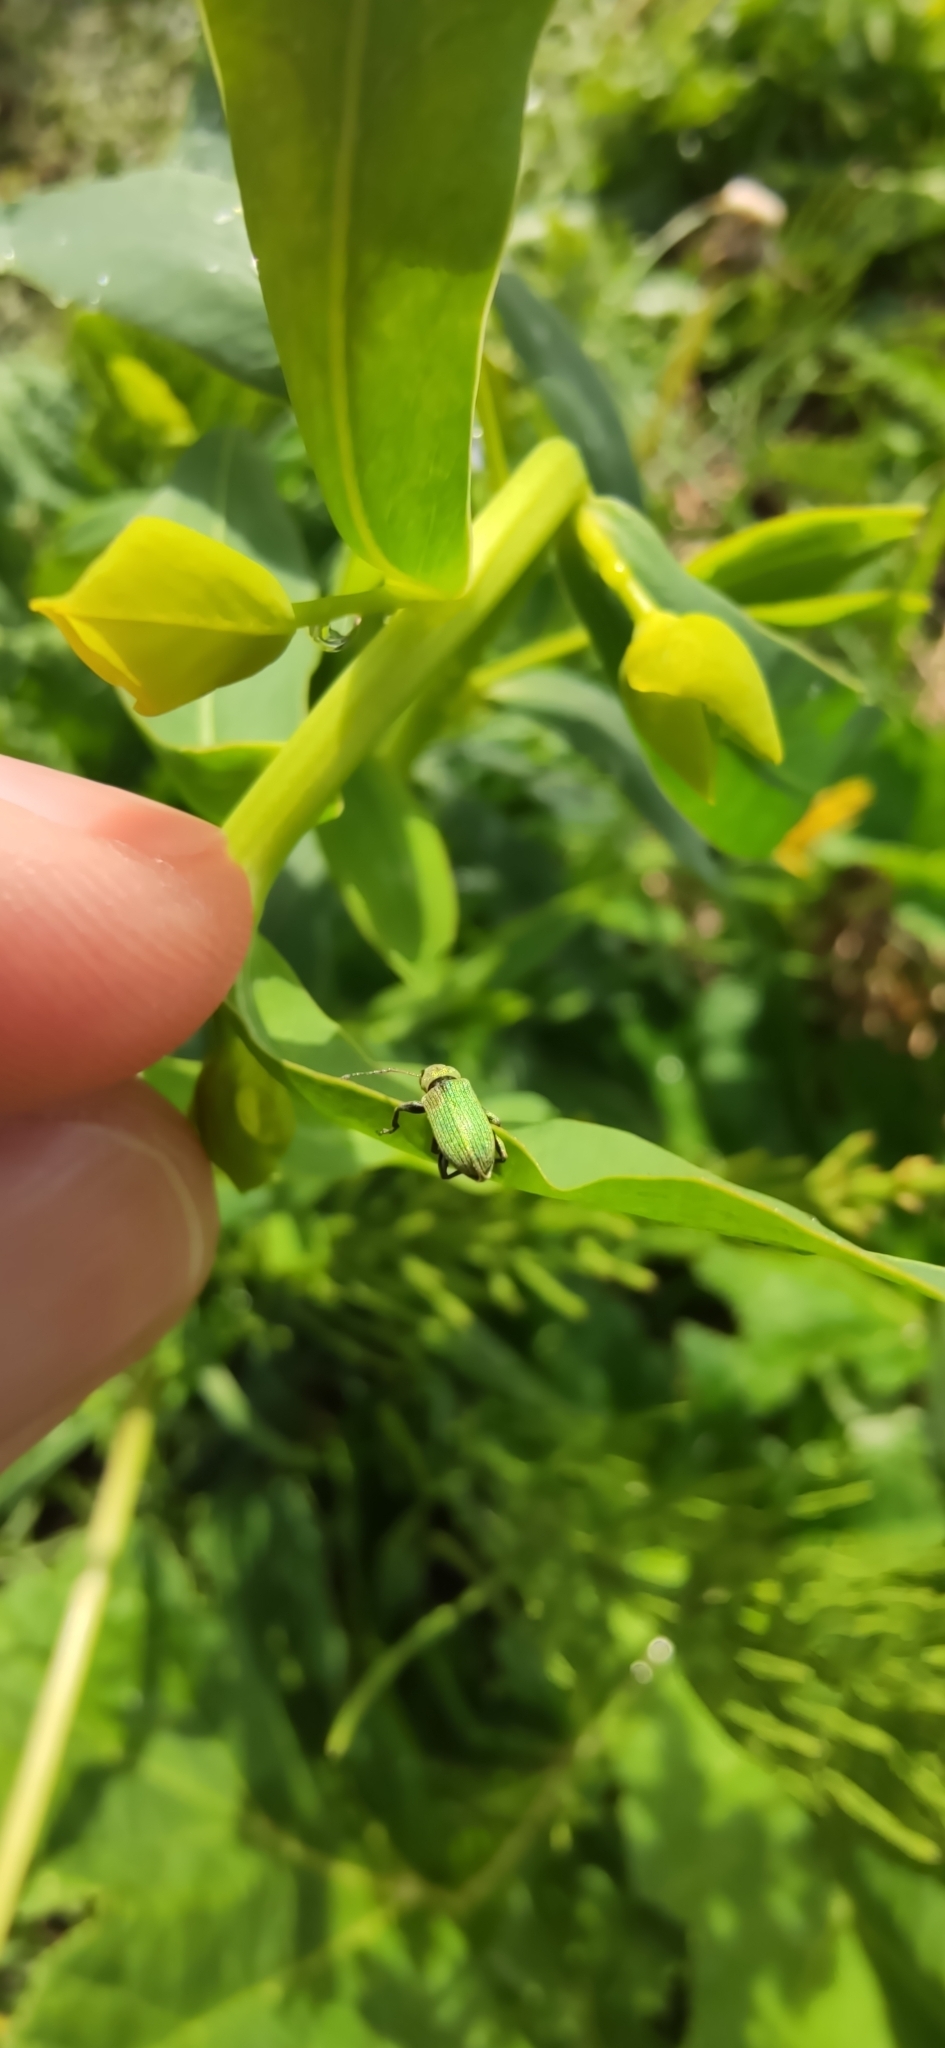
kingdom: Animalia
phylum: Arthropoda
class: Insecta
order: Coleoptera
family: Curculionidae
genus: Phyllobius
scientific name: Phyllobius maculicornis
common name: Green leaf weevil
